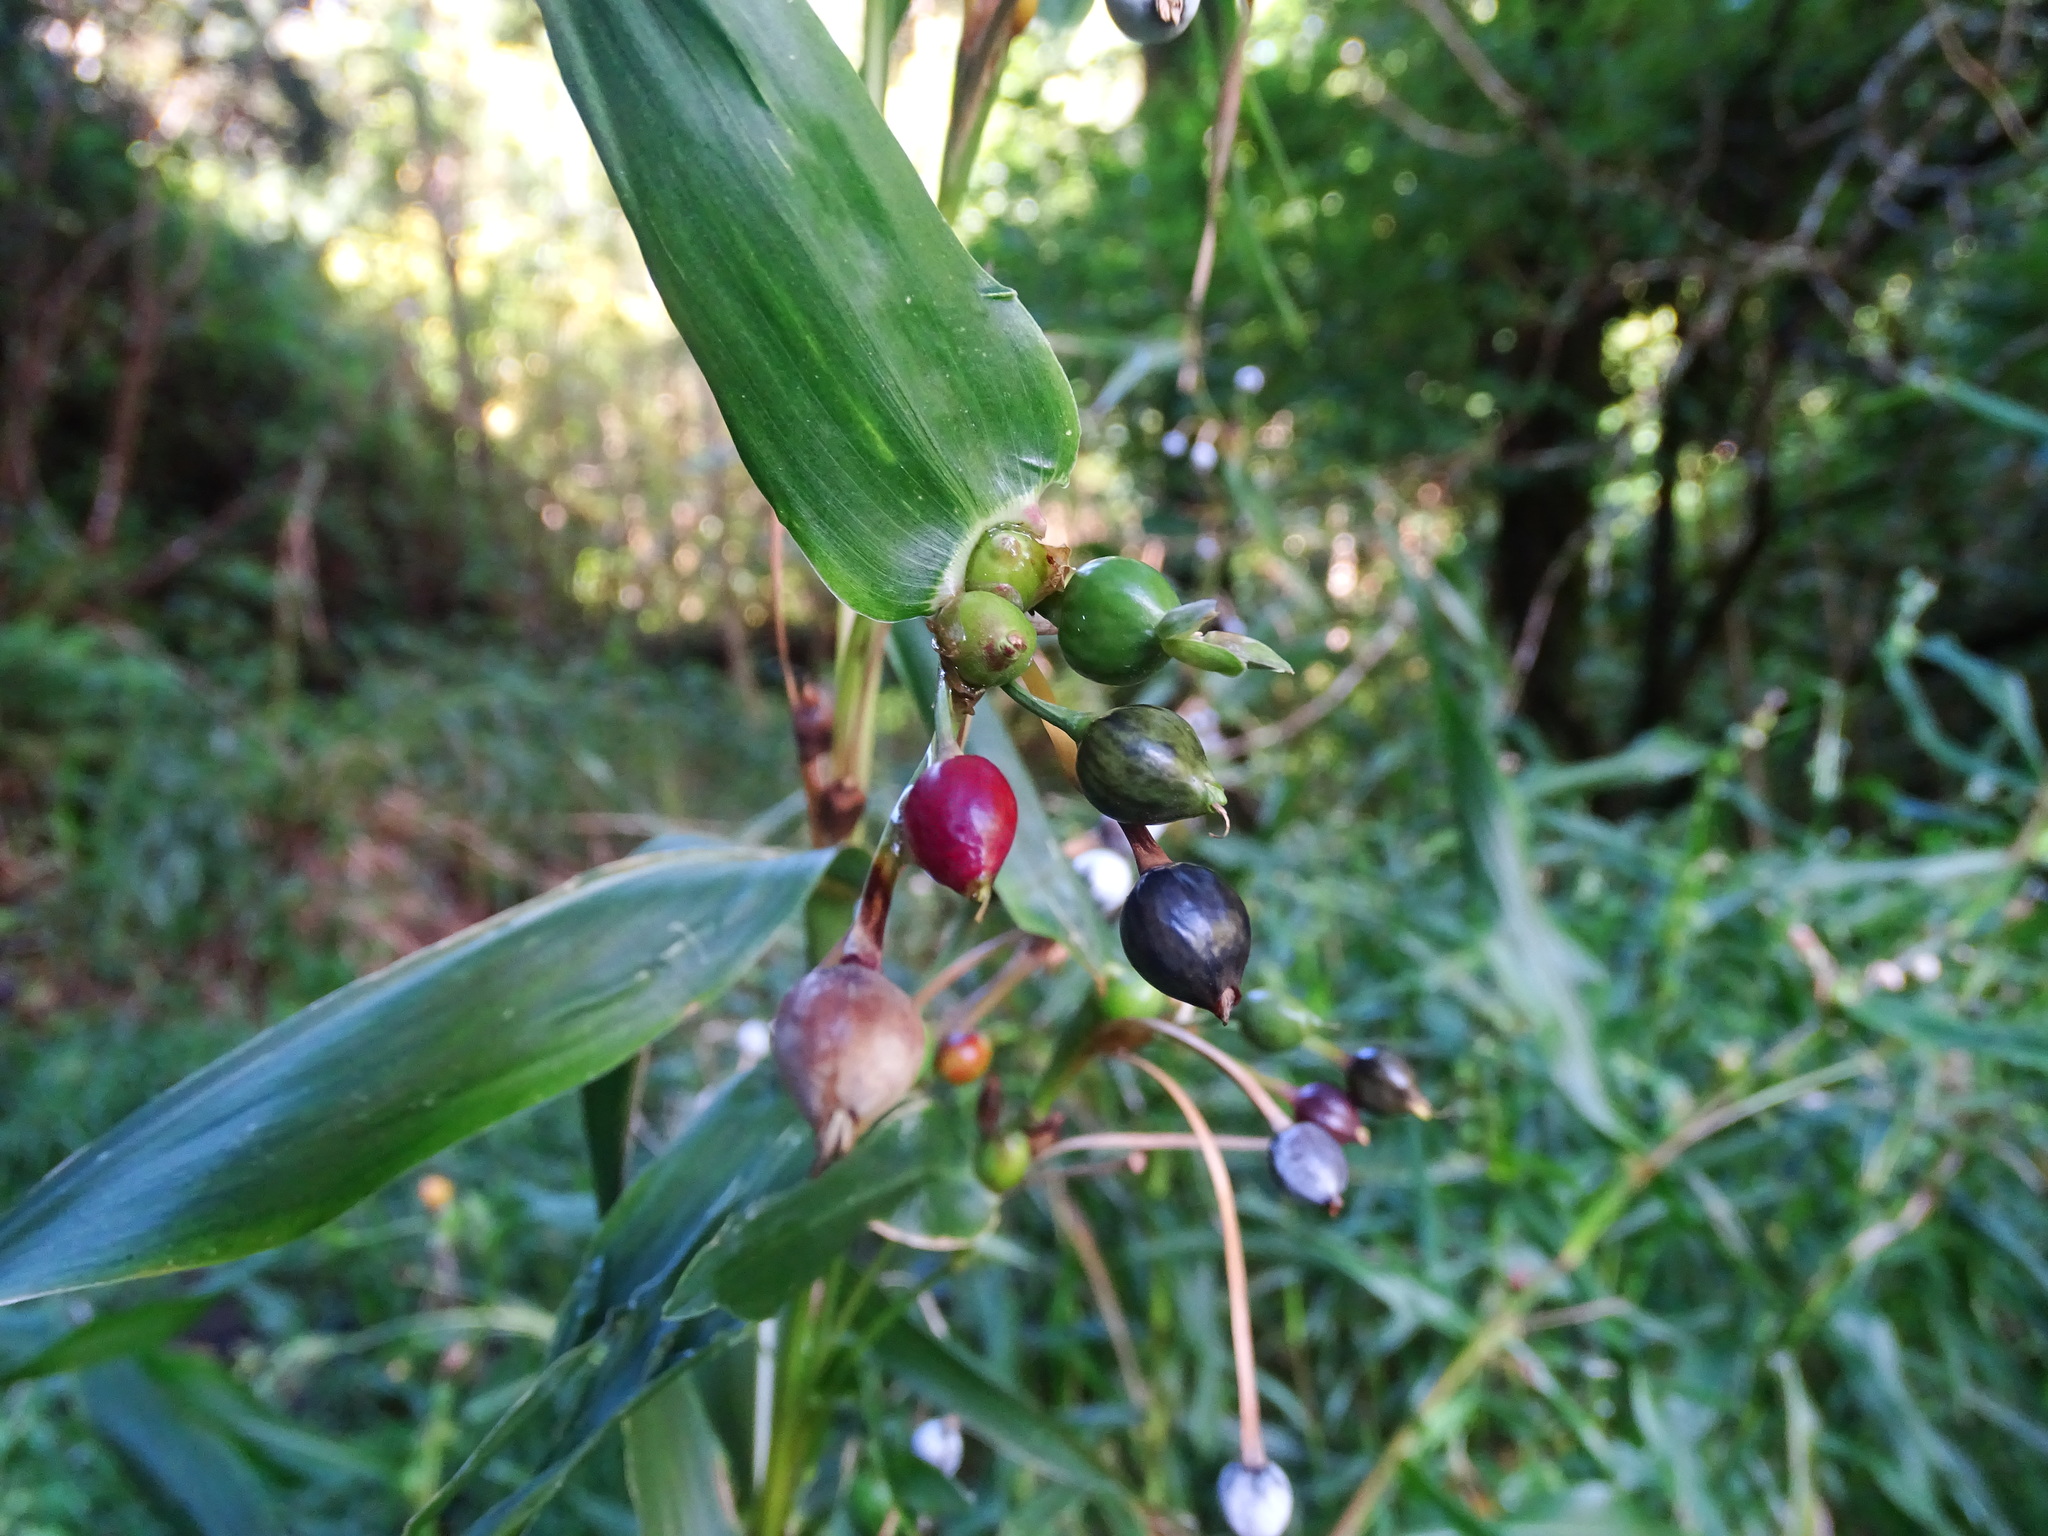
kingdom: Plantae
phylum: Tracheophyta
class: Liliopsida
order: Poales
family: Poaceae
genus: Coix
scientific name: Coix lacryma-jobi
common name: Job's tears
